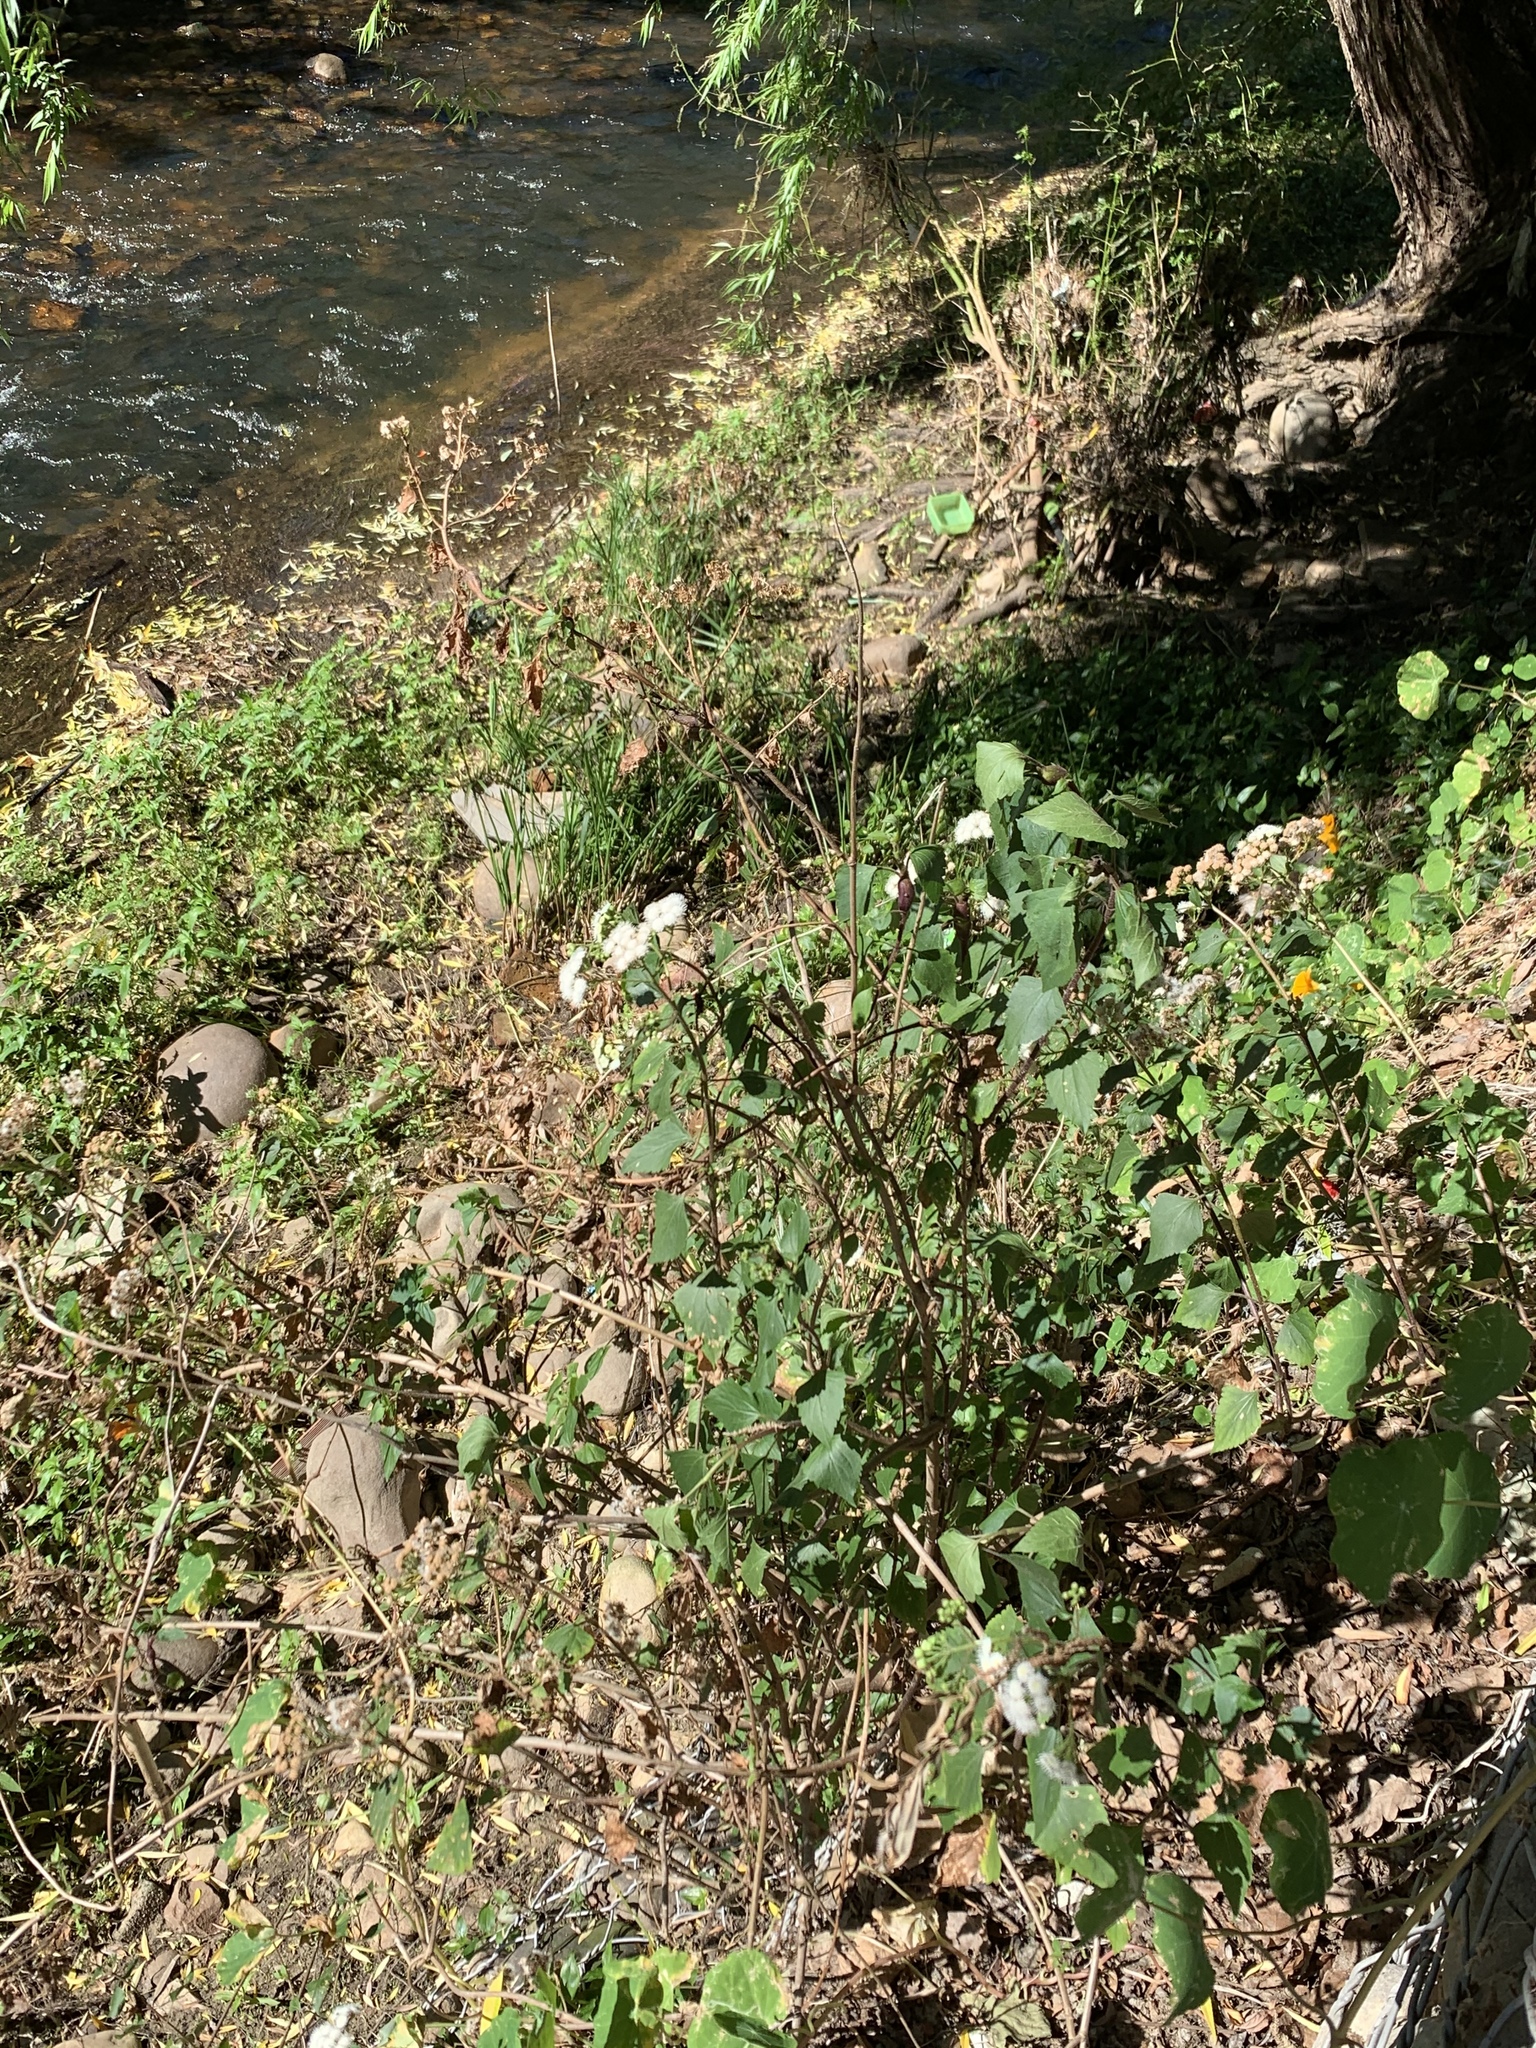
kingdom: Plantae
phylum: Tracheophyta
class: Magnoliopsida
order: Asterales
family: Asteraceae
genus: Ageratina
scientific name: Ageratina adenophora
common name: Sticky snakeroot
